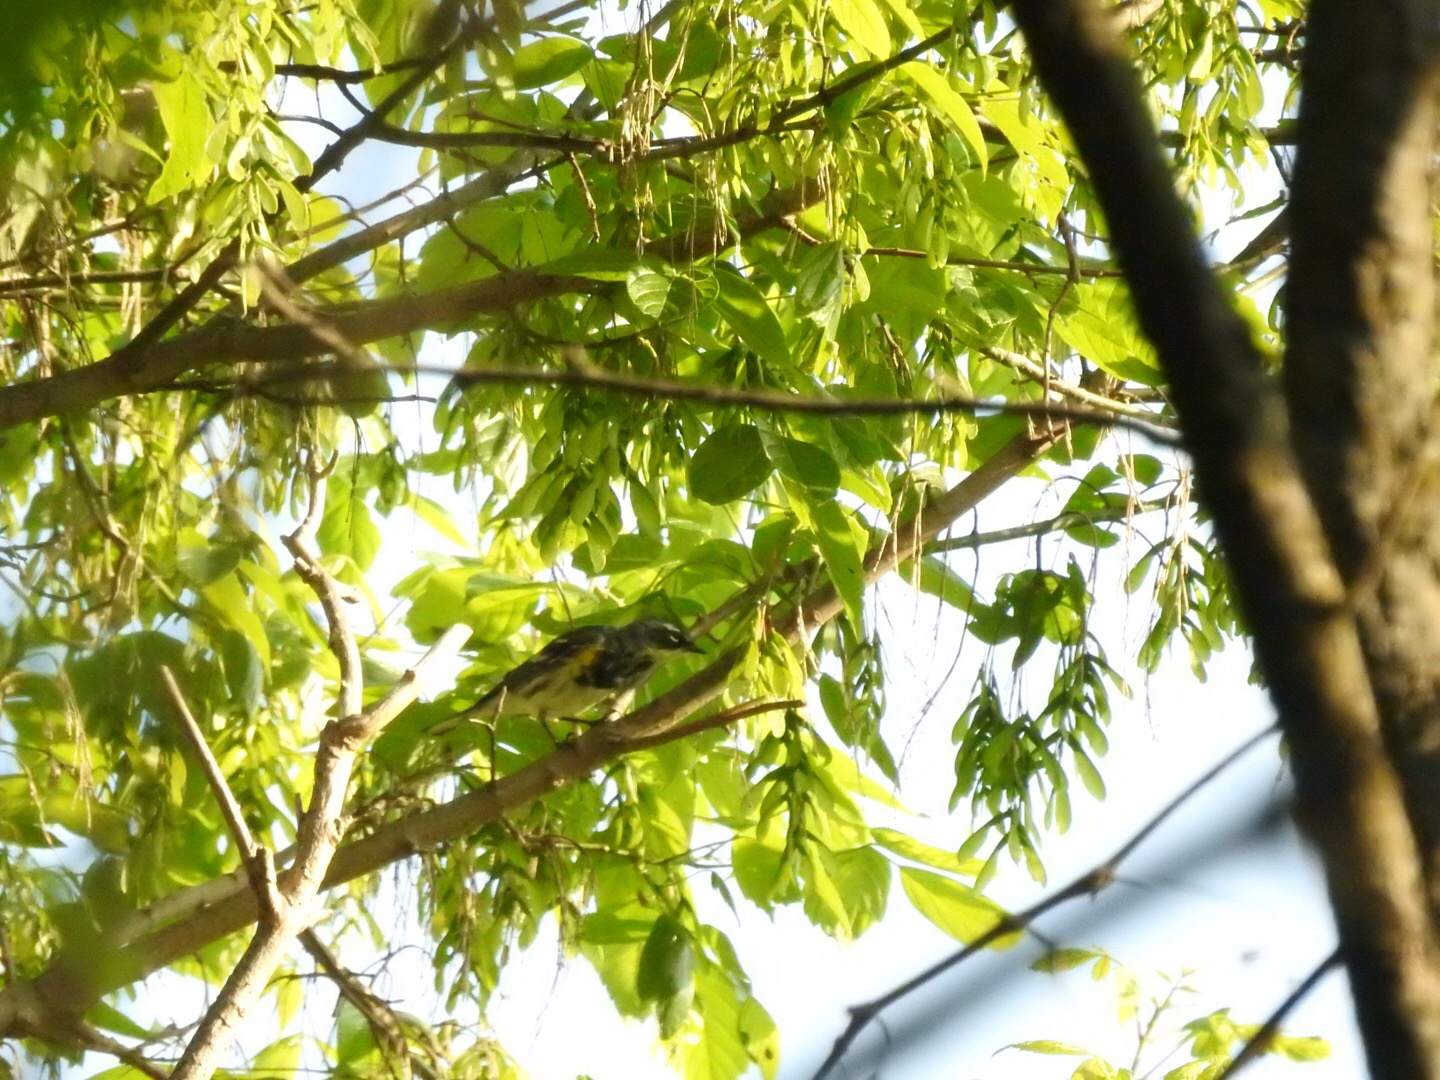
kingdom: Animalia
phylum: Chordata
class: Aves
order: Passeriformes
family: Parulidae
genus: Setophaga
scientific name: Setophaga coronata
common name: Myrtle warbler
